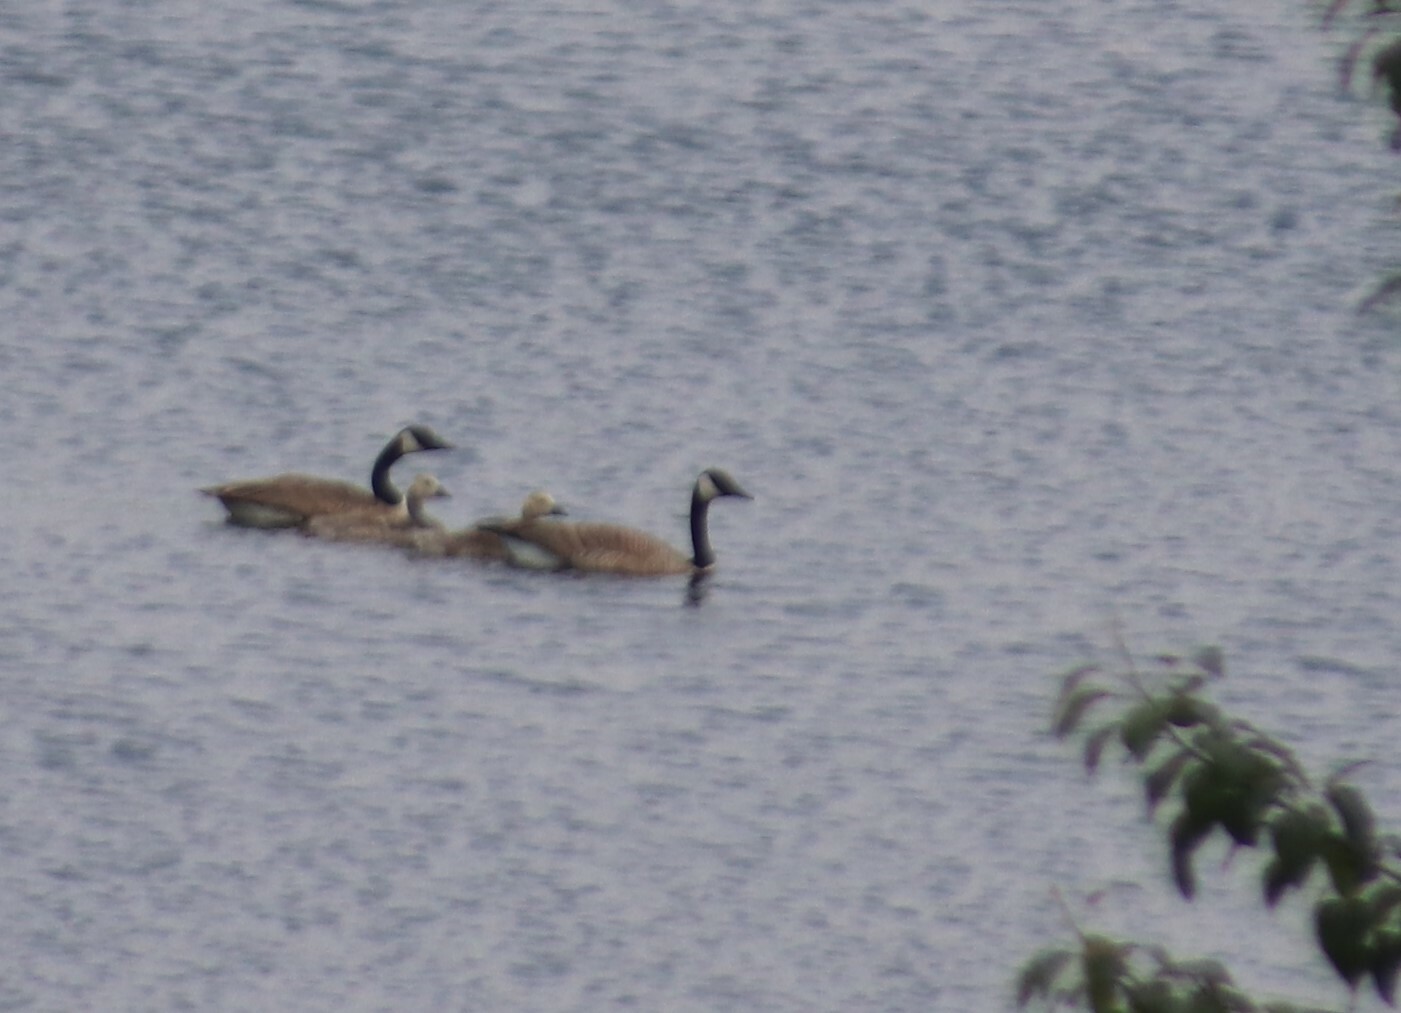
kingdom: Animalia
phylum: Chordata
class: Aves
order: Anseriformes
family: Anatidae
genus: Branta
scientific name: Branta canadensis
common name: Canada goose
